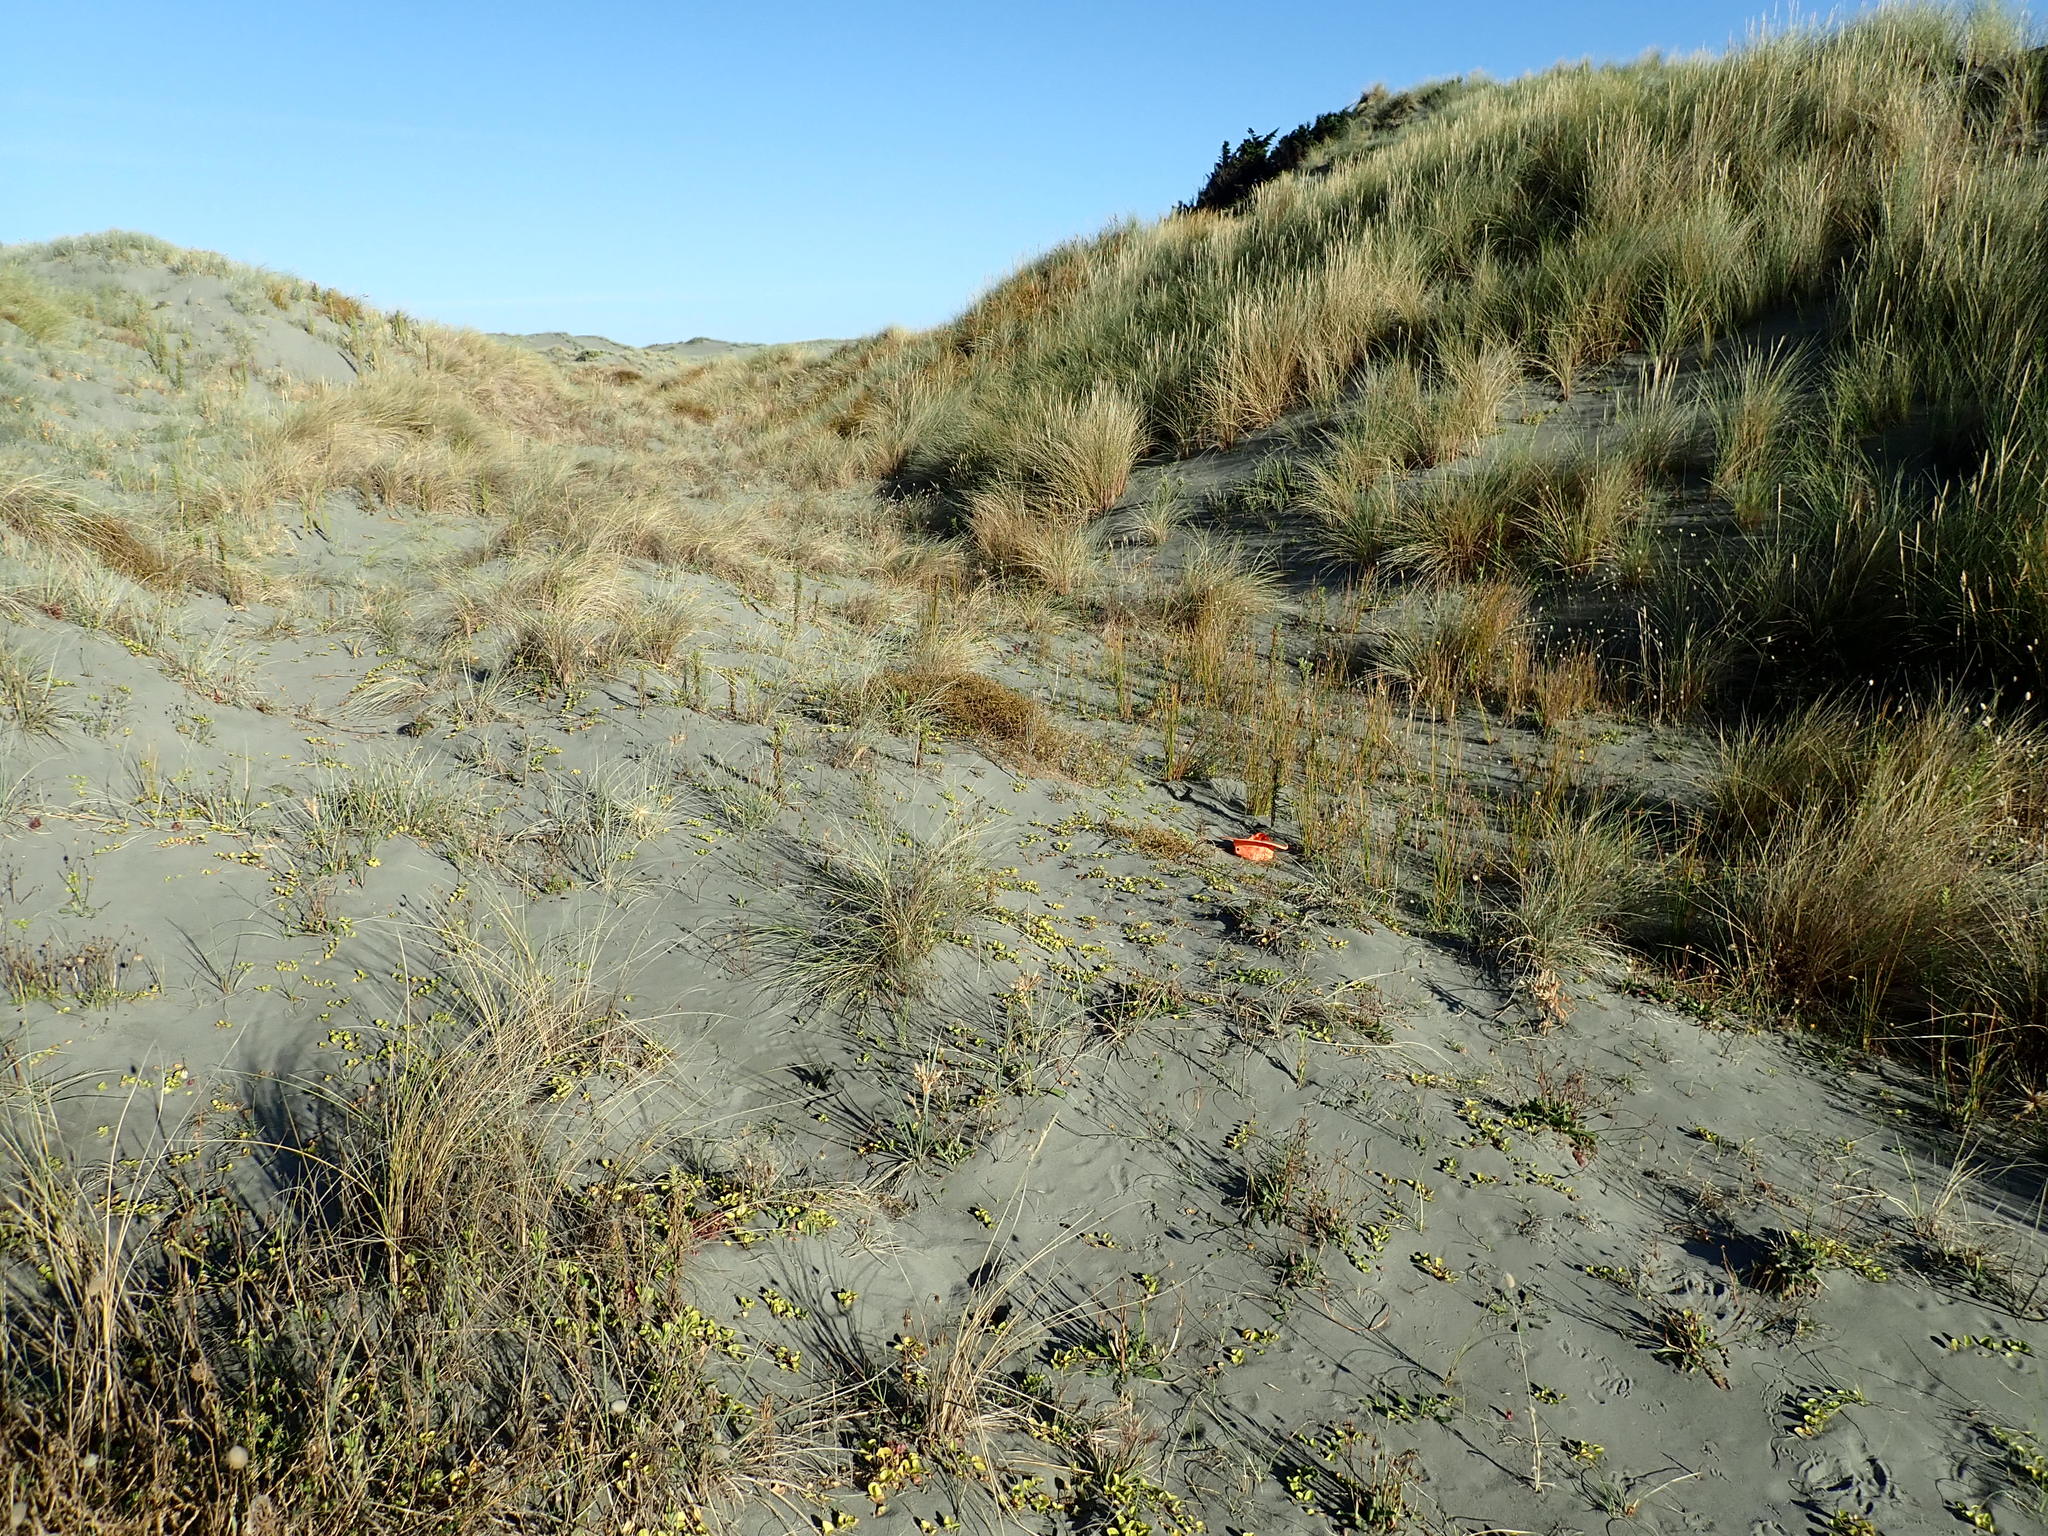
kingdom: Plantae
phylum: Tracheophyta
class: Liliopsida
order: Poales
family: Cyperaceae
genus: Carex
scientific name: Carex pumila
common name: Dwarf sedge
